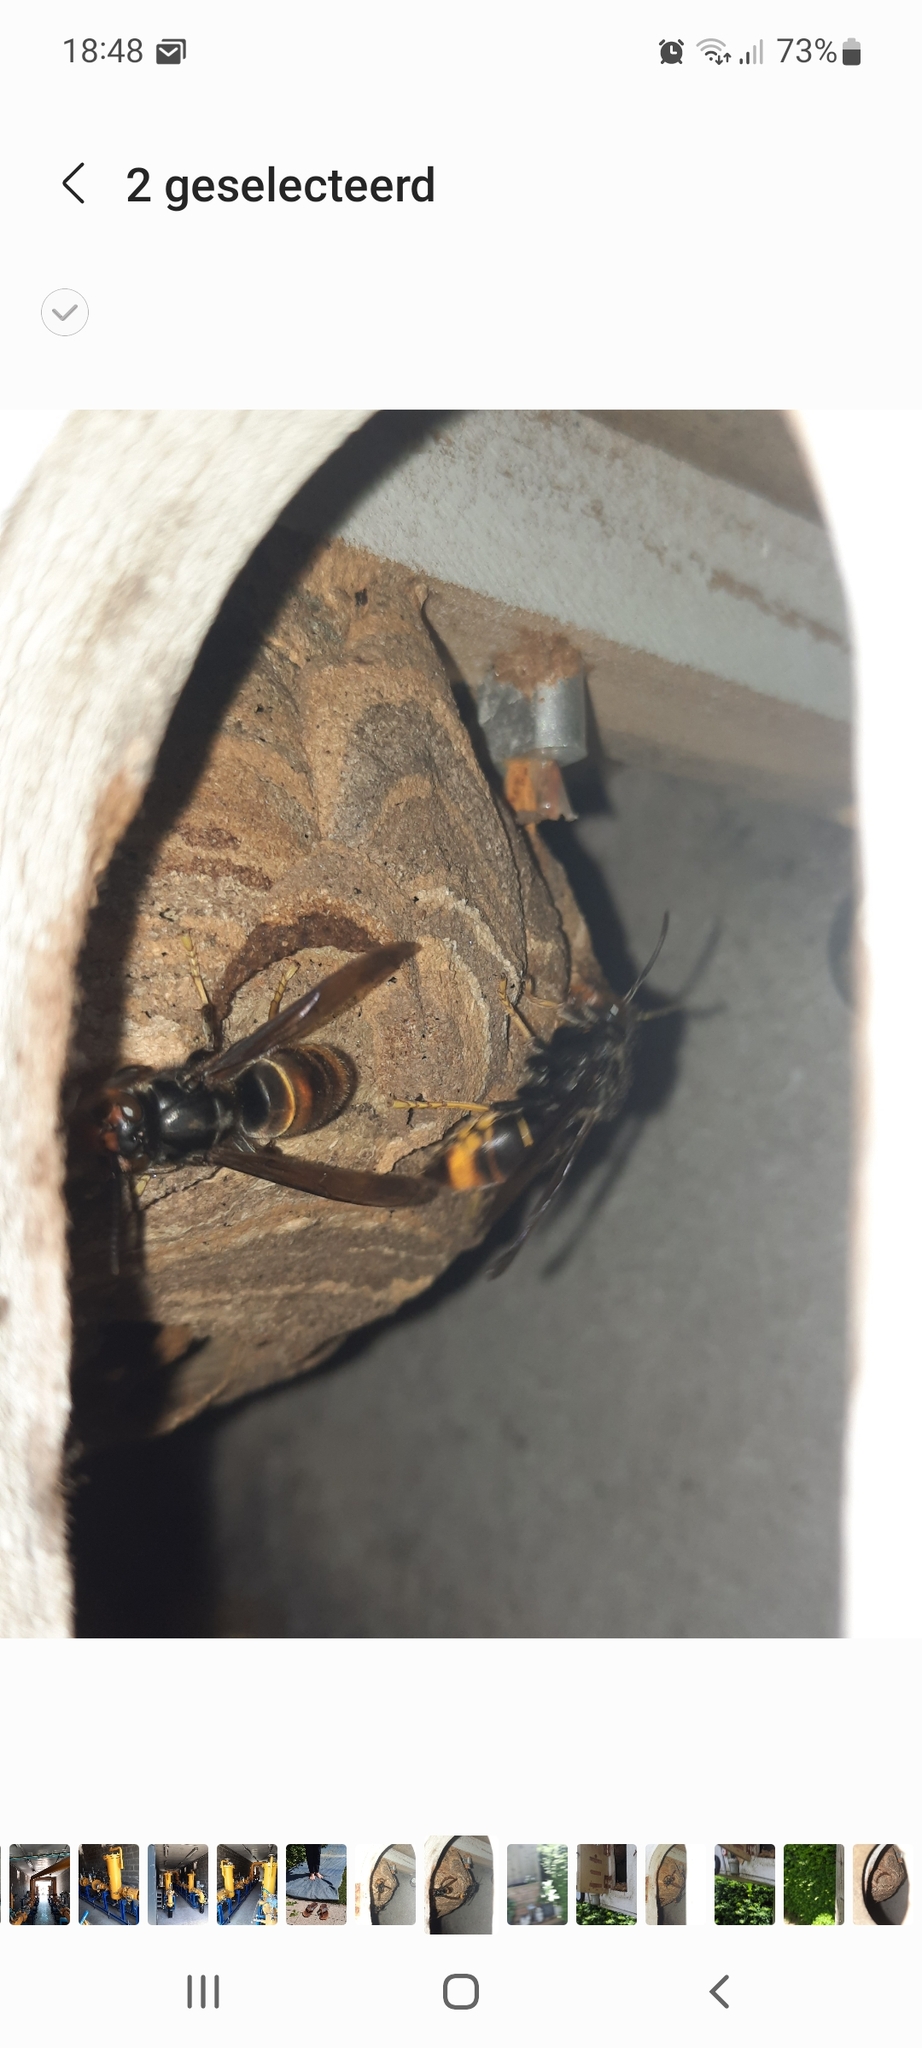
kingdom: Animalia
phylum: Arthropoda
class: Insecta
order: Hymenoptera
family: Vespidae
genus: Vespa
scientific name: Vespa velutina
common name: Asian hornet
